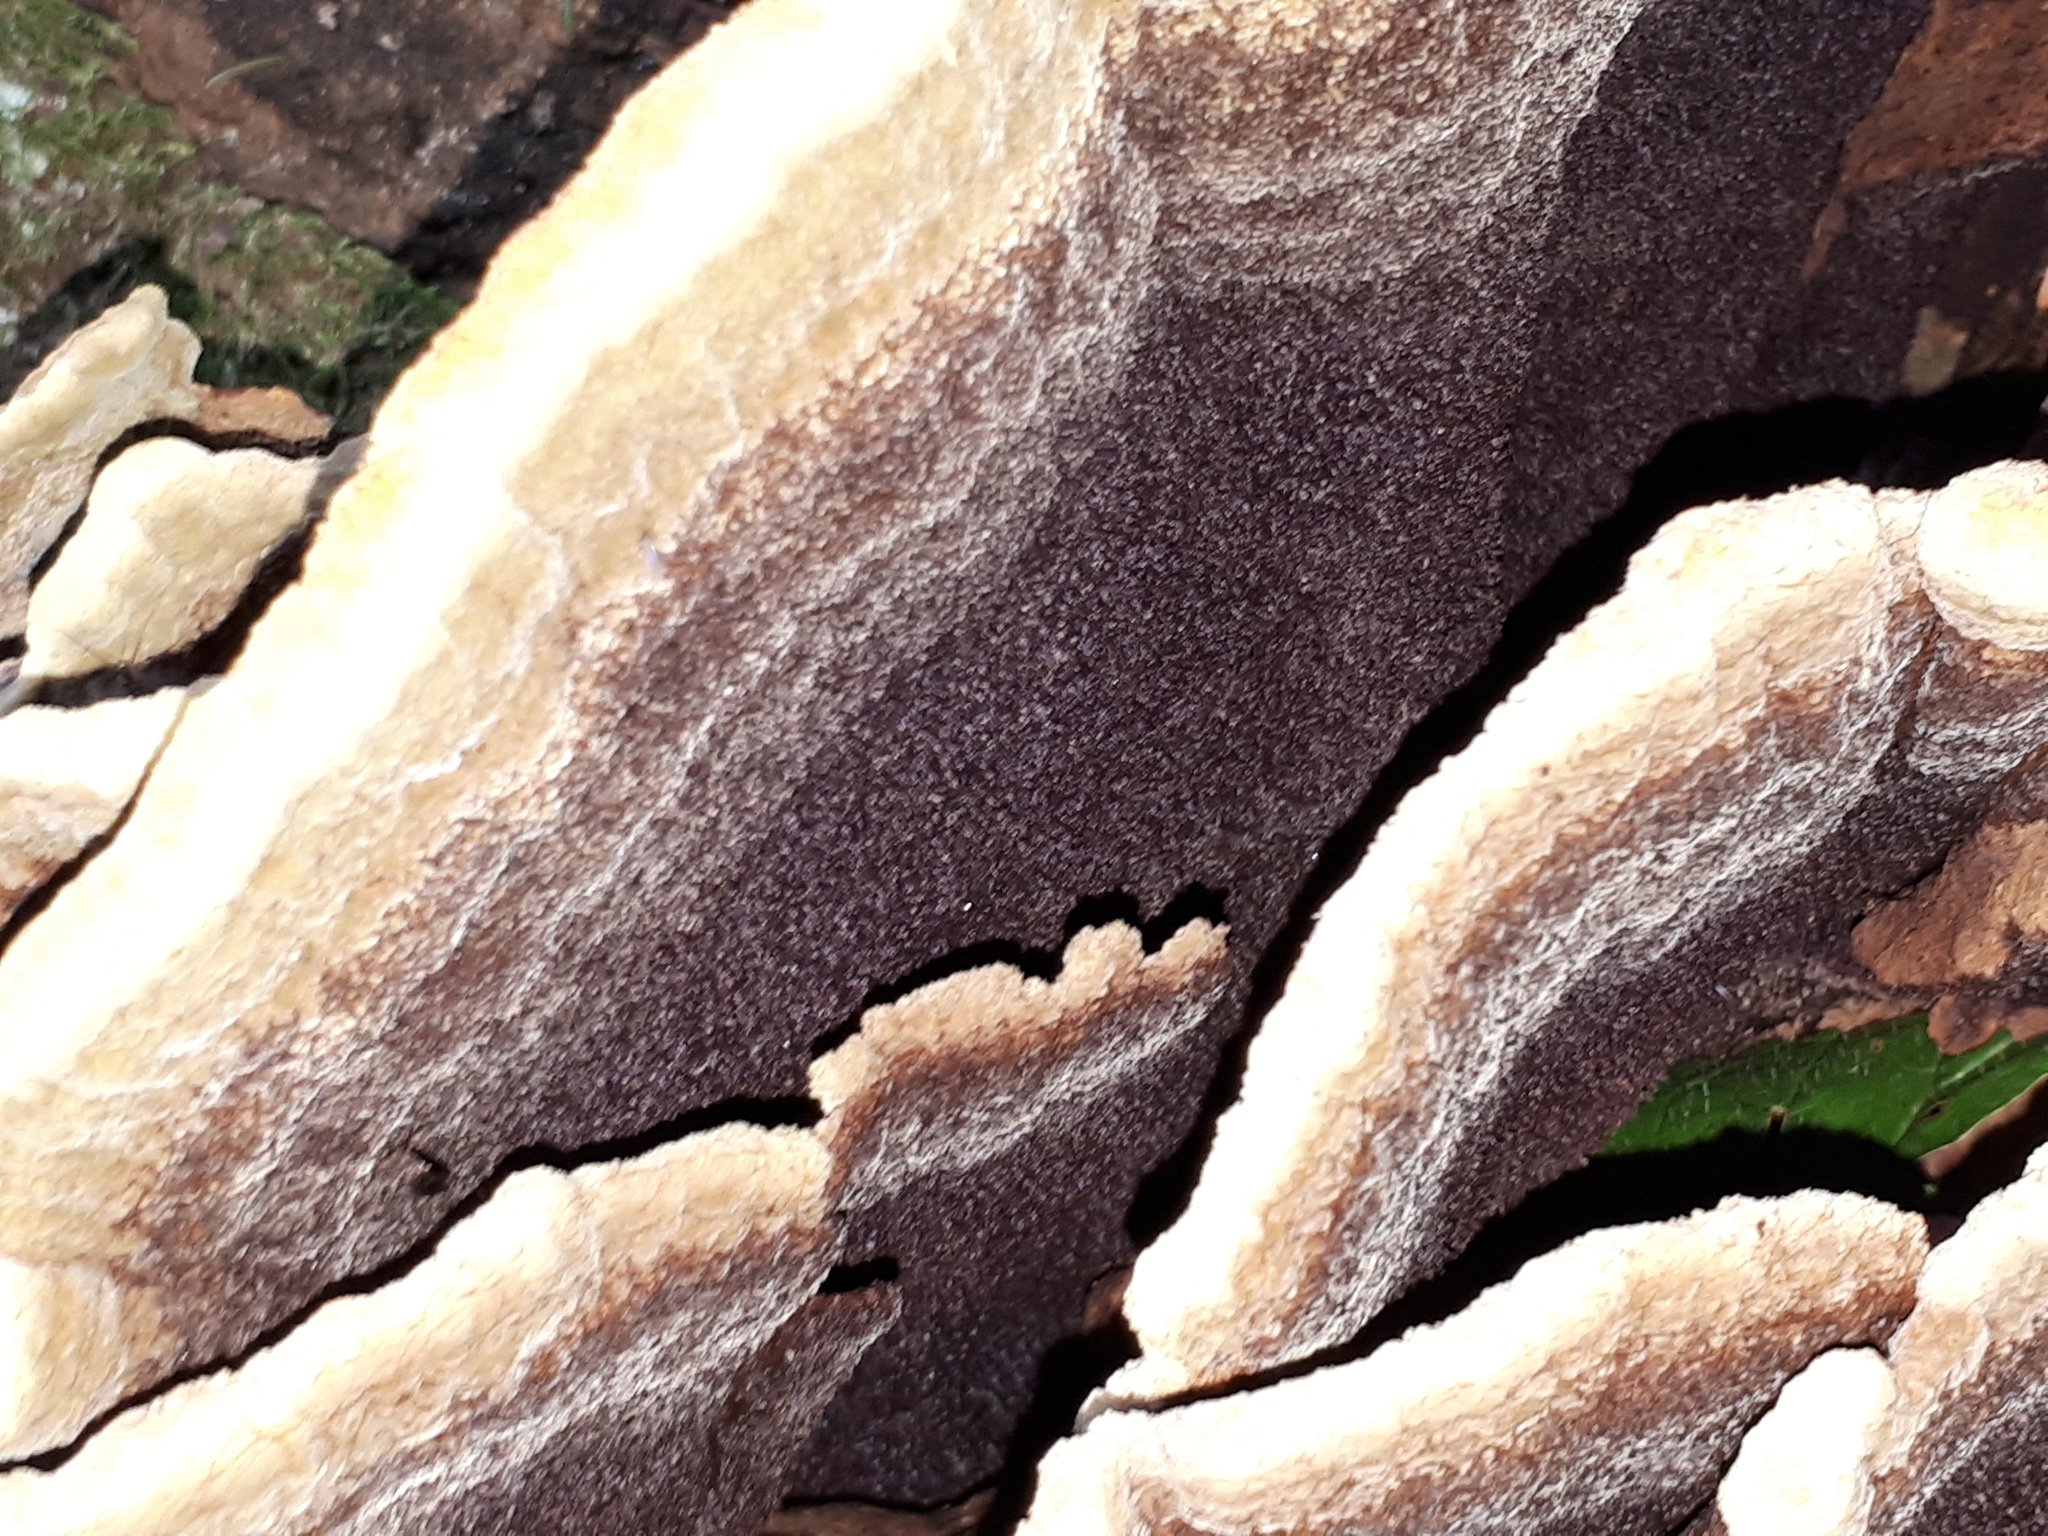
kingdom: Fungi
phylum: Basidiomycota
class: Agaricomycetes
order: Polyporales
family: Laetiporaceae
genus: Phaeolus
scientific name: Phaeolus schweinitzii
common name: Dyer's mazegill
